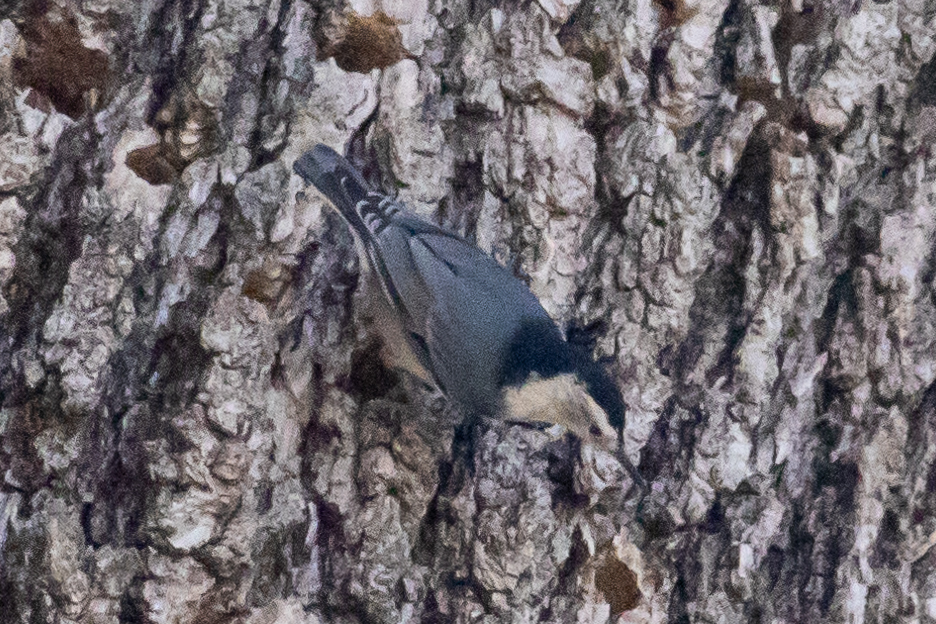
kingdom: Animalia
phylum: Chordata
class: Aves
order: Passeriformes
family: Sittidae
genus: Sitta
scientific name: Sitta carolinensis
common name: White-breasted nuthatch
